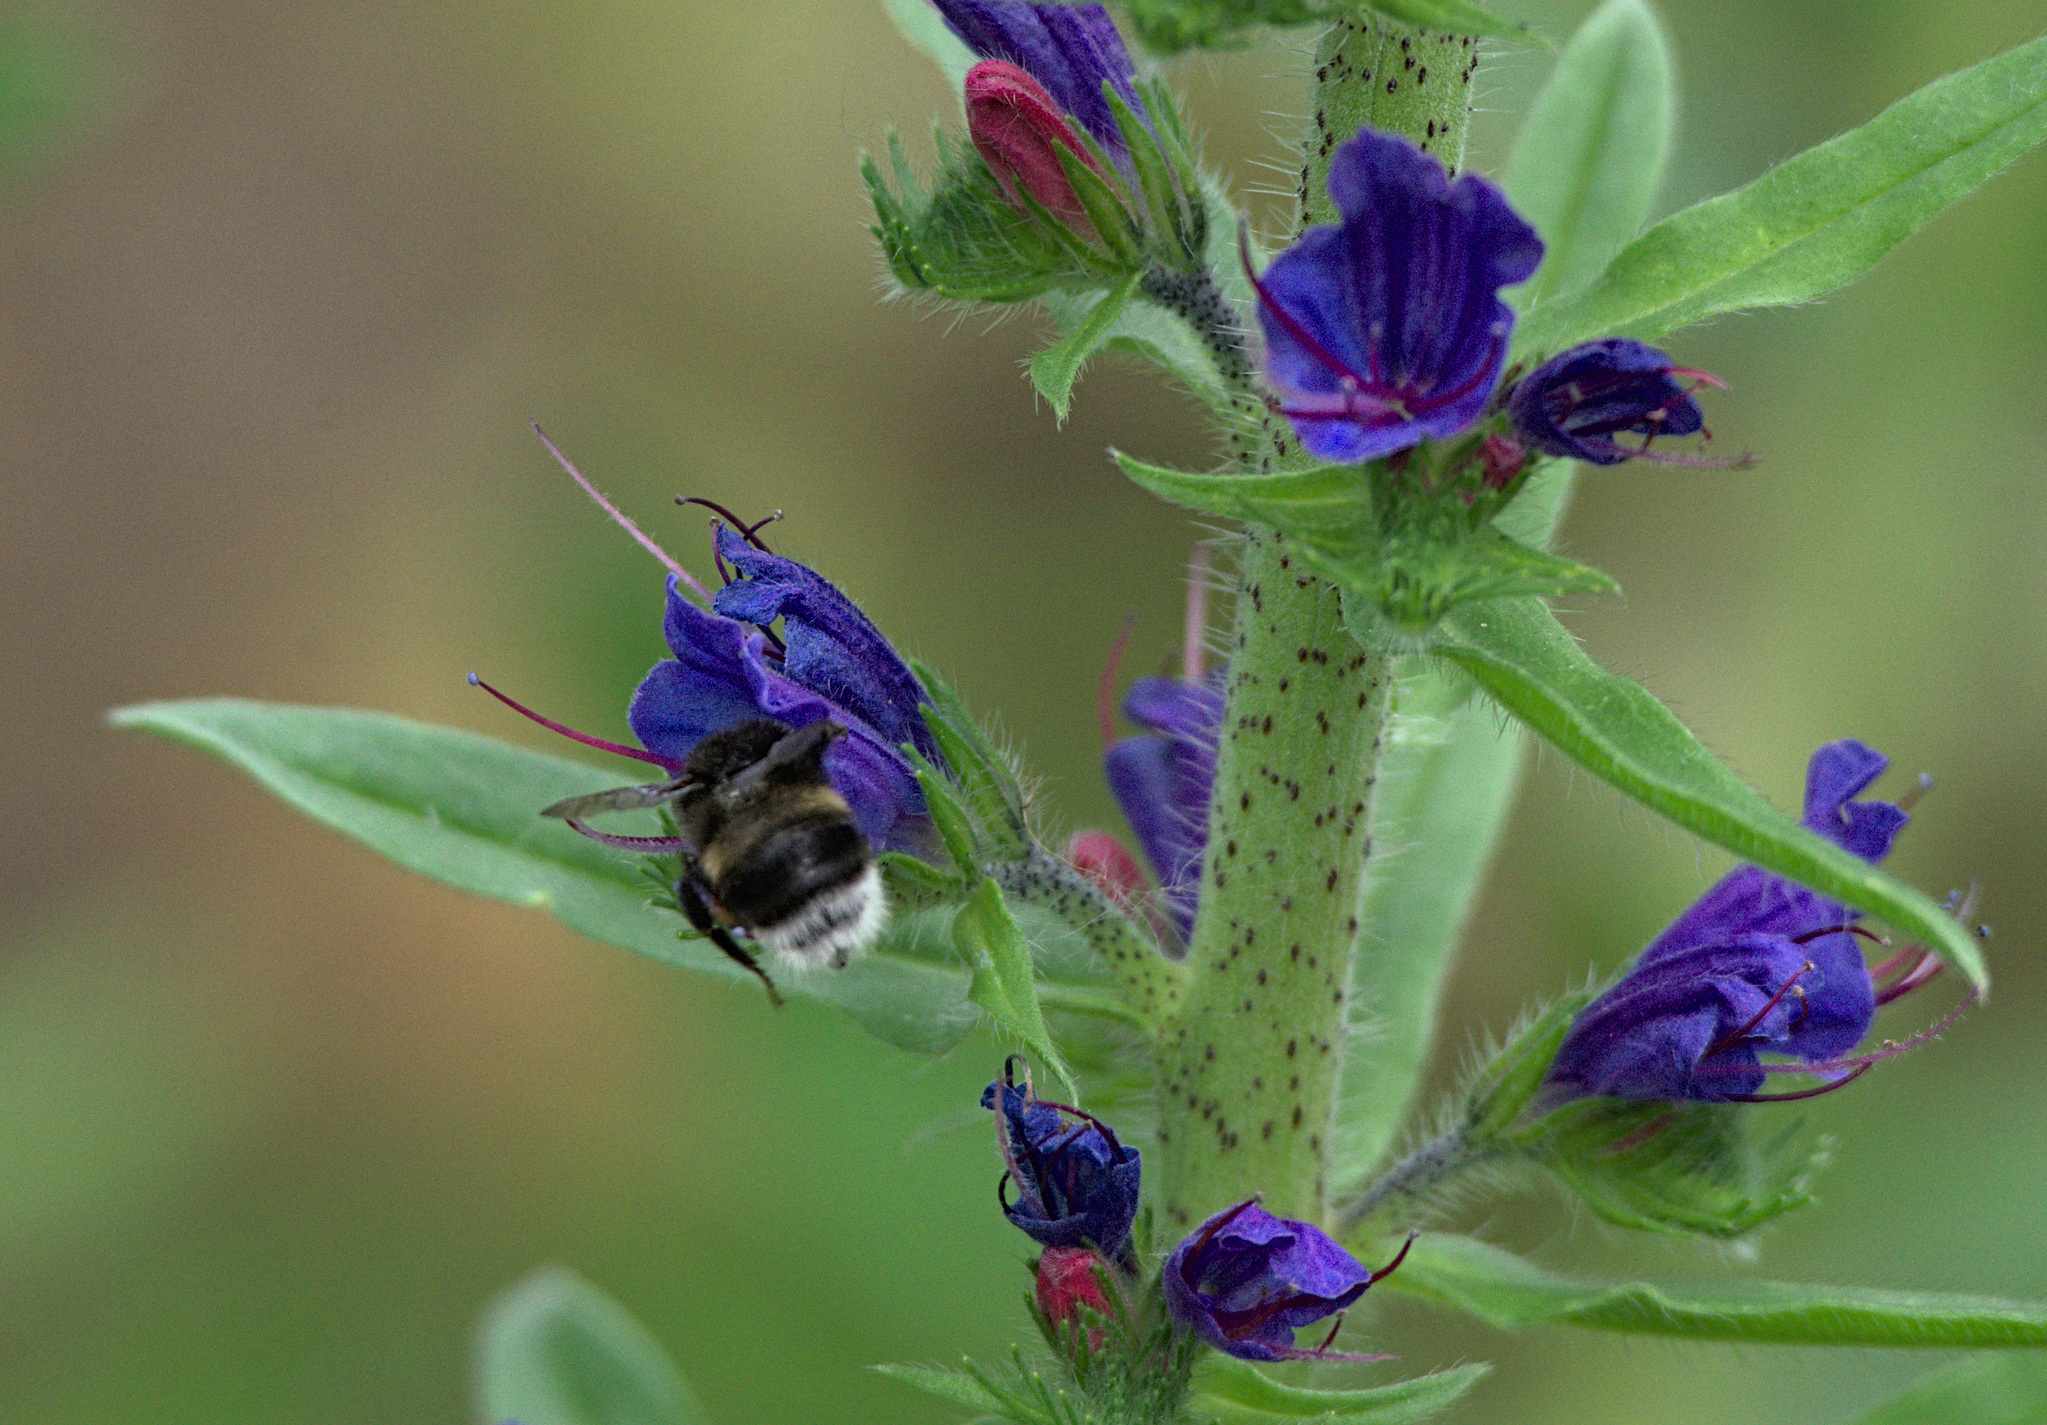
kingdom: Animalia
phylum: Arthropoda
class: Insecta
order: Hymenoptera
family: Apidae
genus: Bombus
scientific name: Bombus
